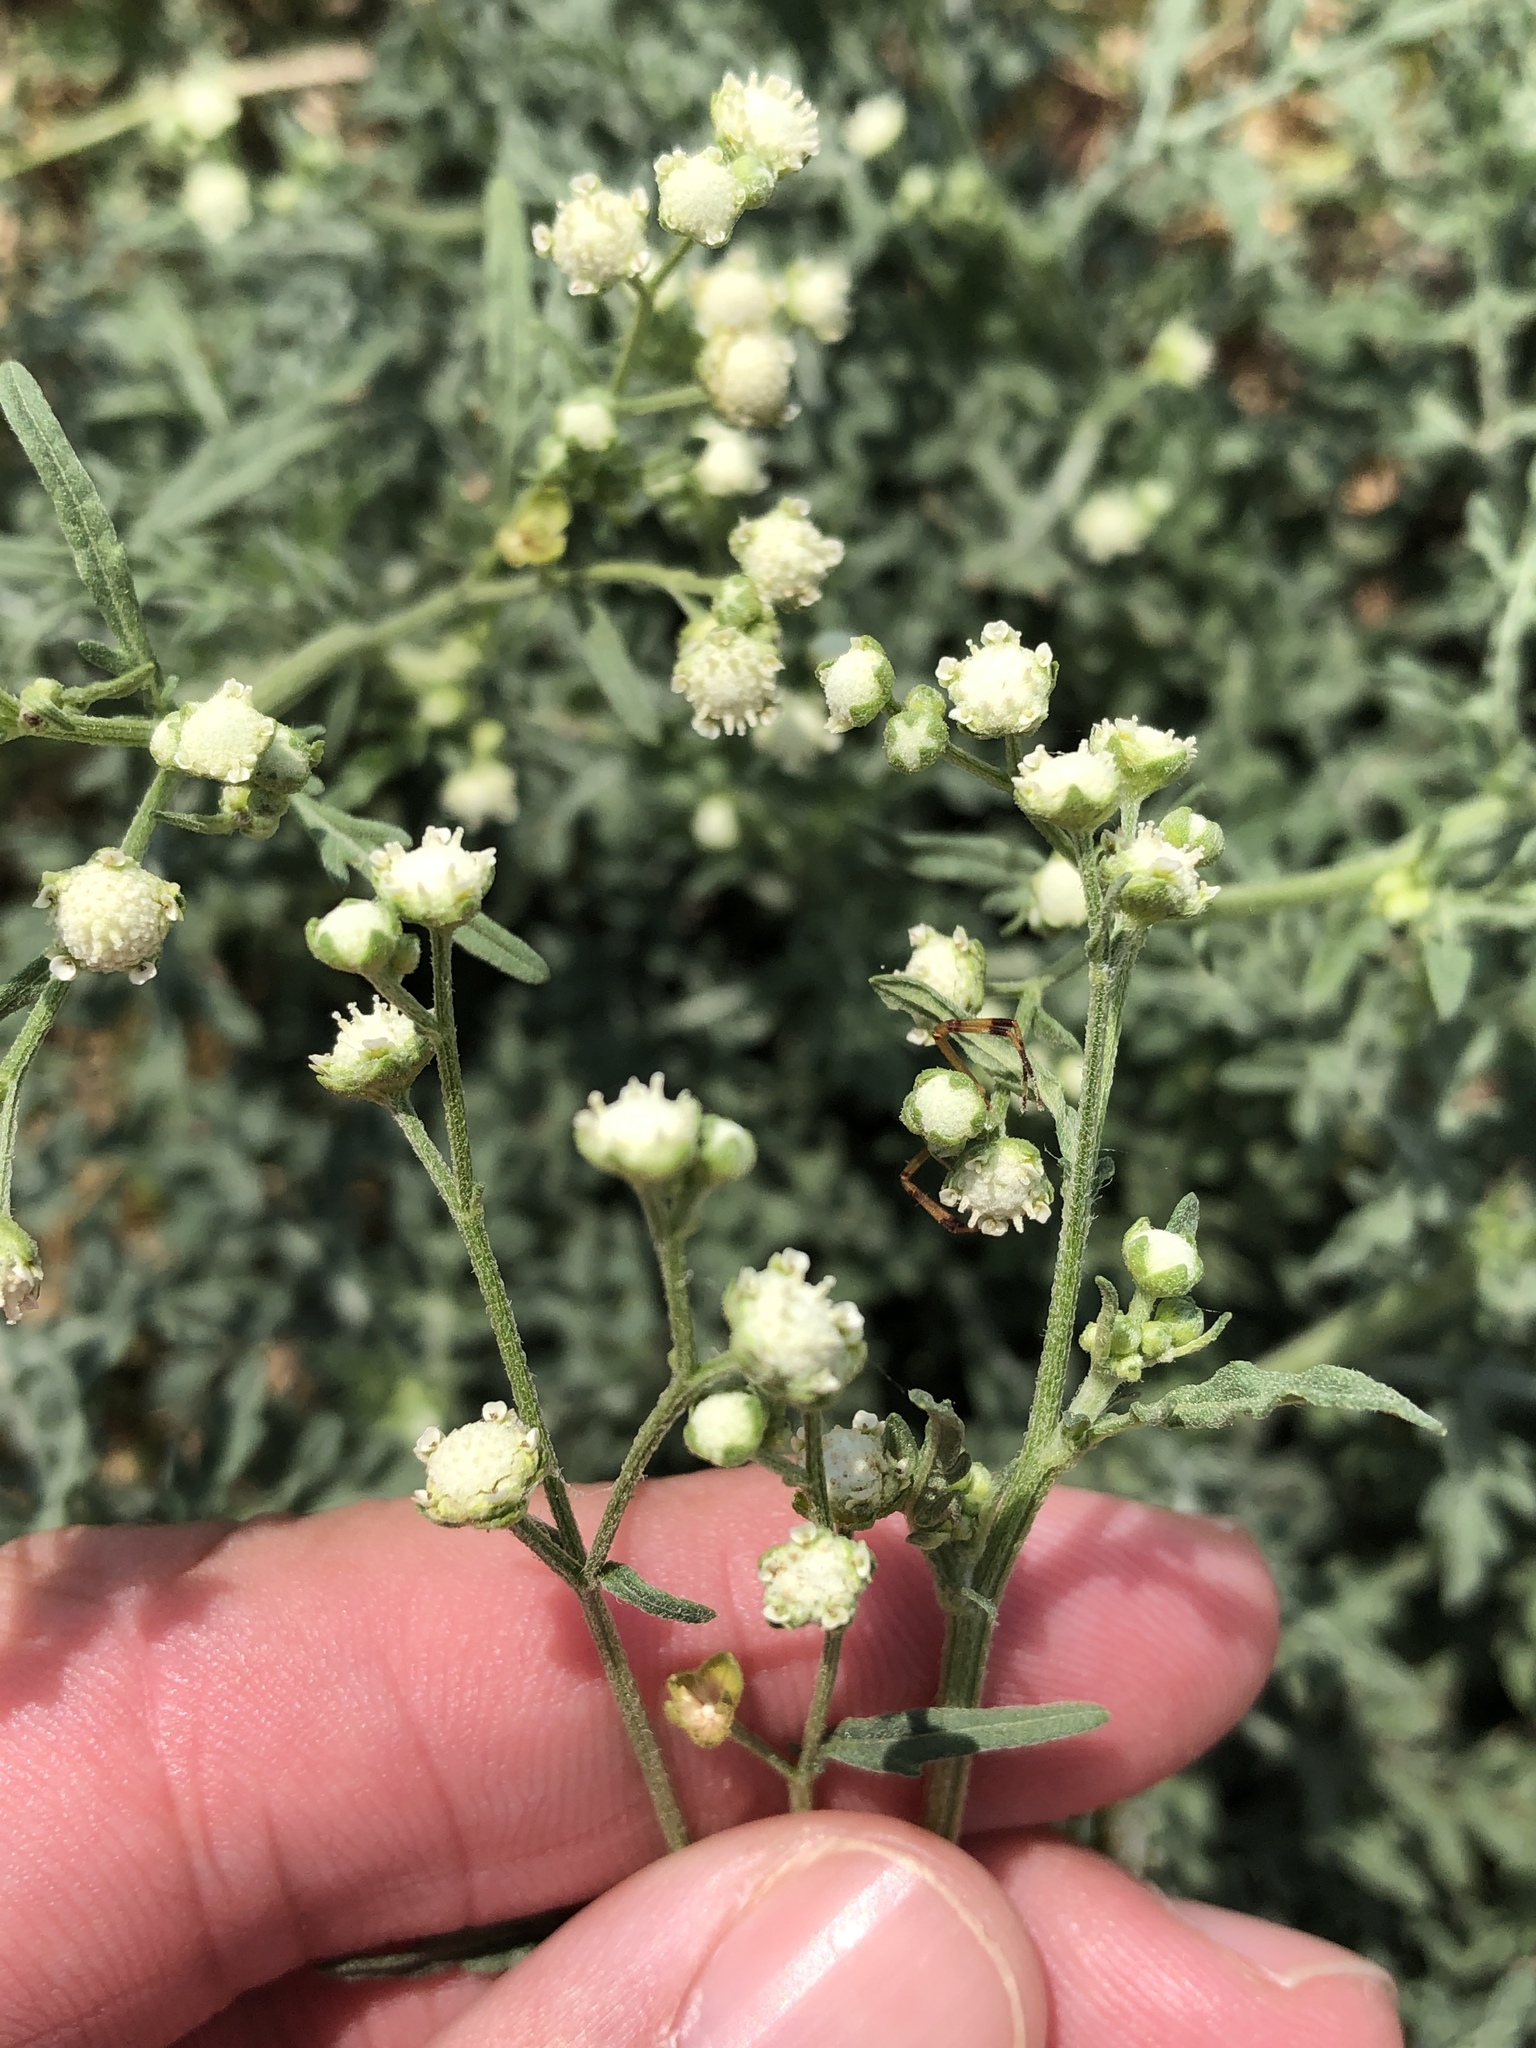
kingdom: Plantae
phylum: Tracheophyta
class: Magnoliopsida
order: Asterales
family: Asteraceae
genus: Parthenium
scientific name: Parthenium hysterophorus
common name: Santa maria feverfew
